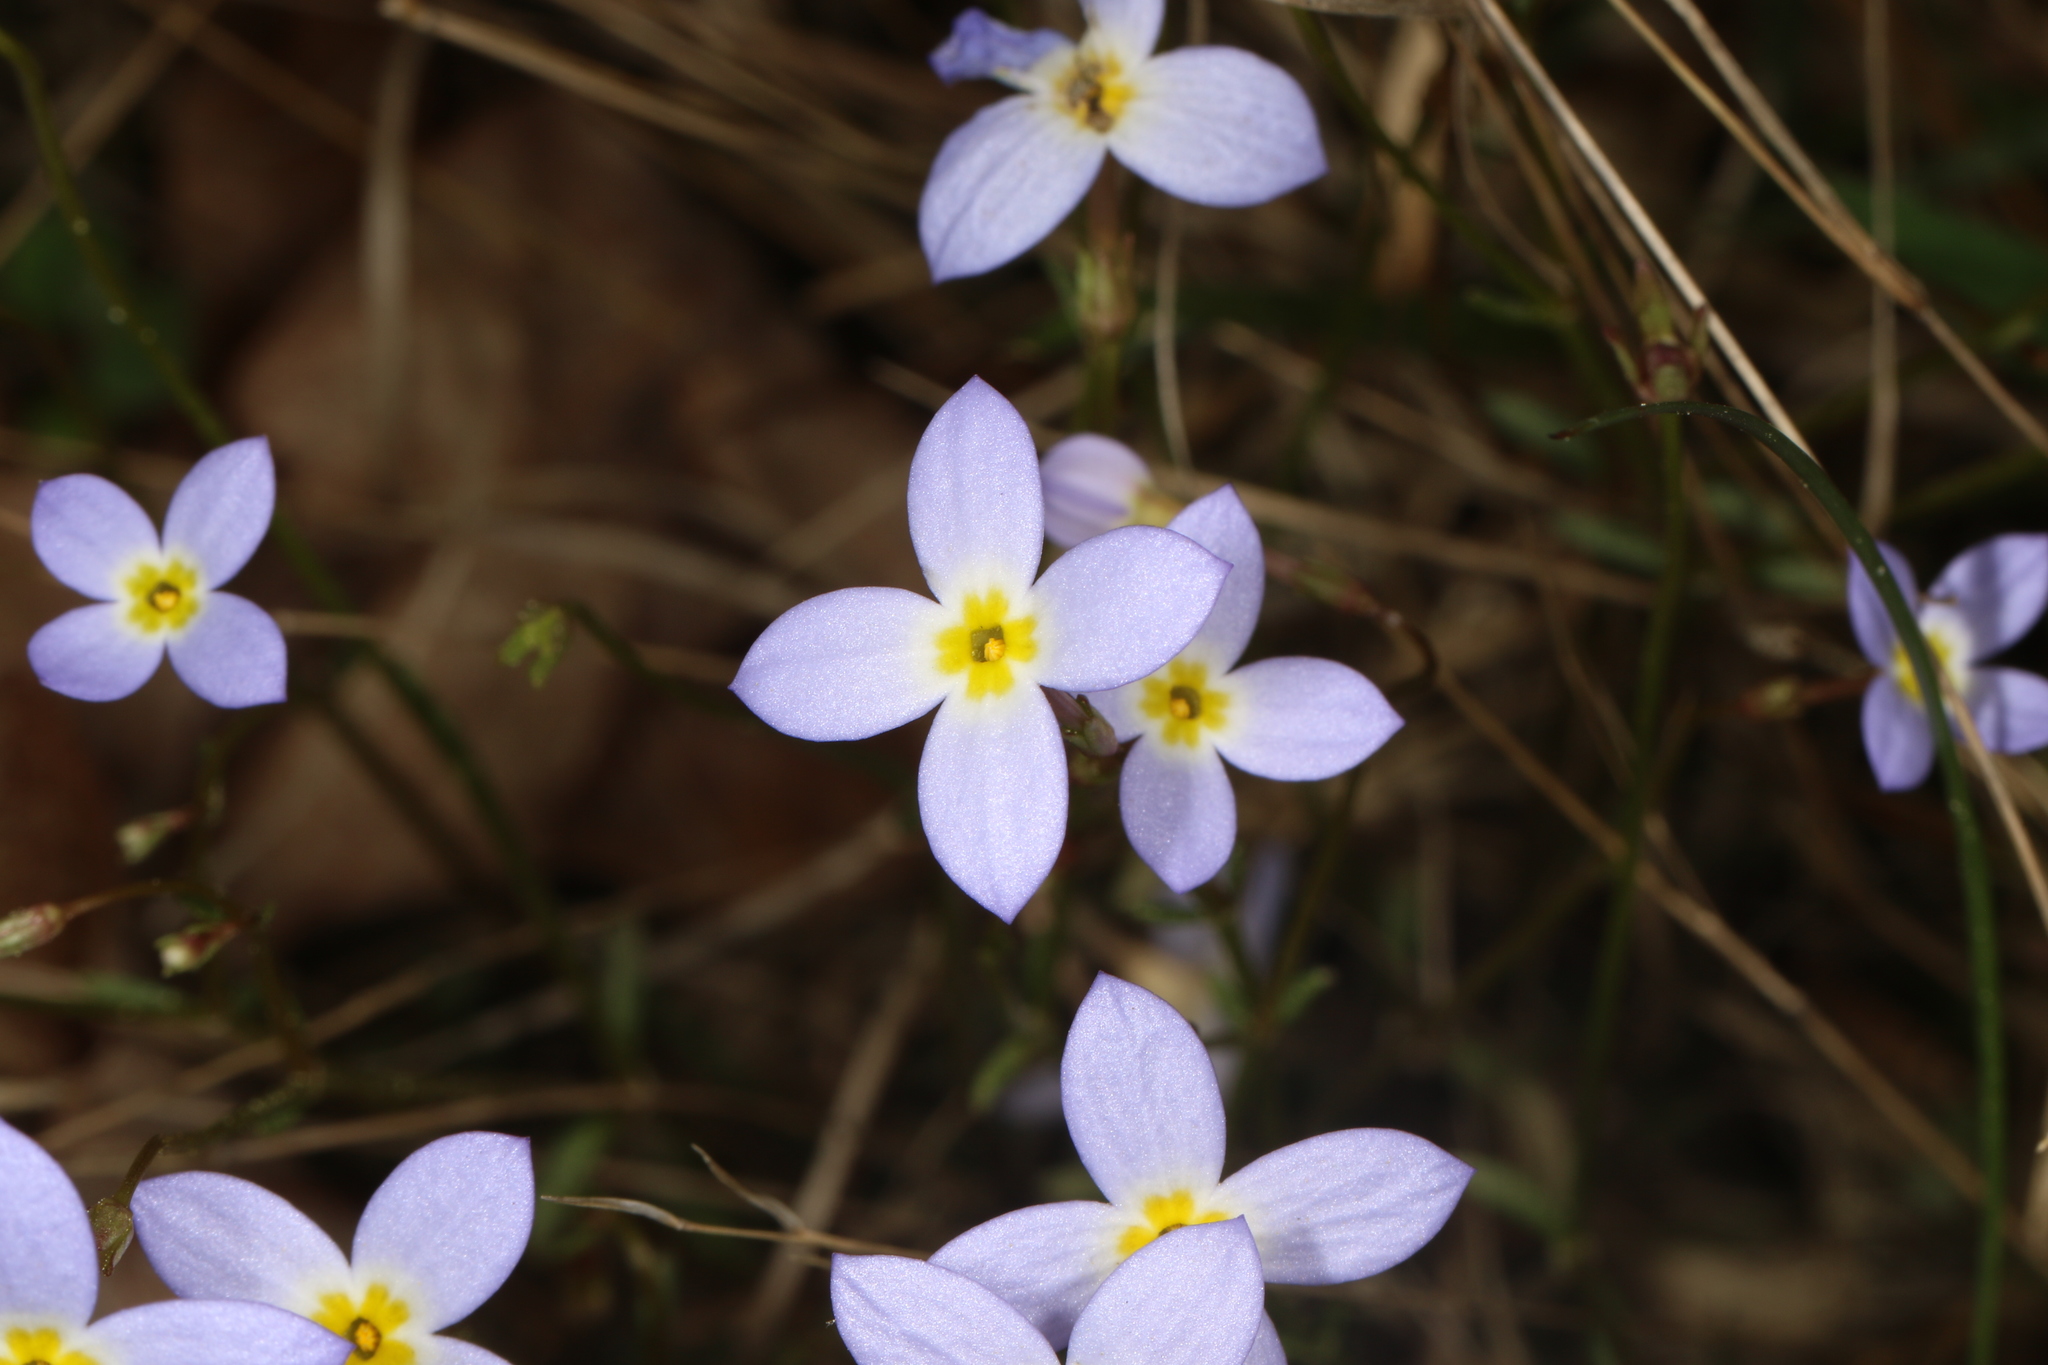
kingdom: Plantae
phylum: Tracheophyta
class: Magnoliopsida
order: Gentianales
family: Rubiaceae
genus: Houstonia
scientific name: Houstonia caerulea
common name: Bluets
